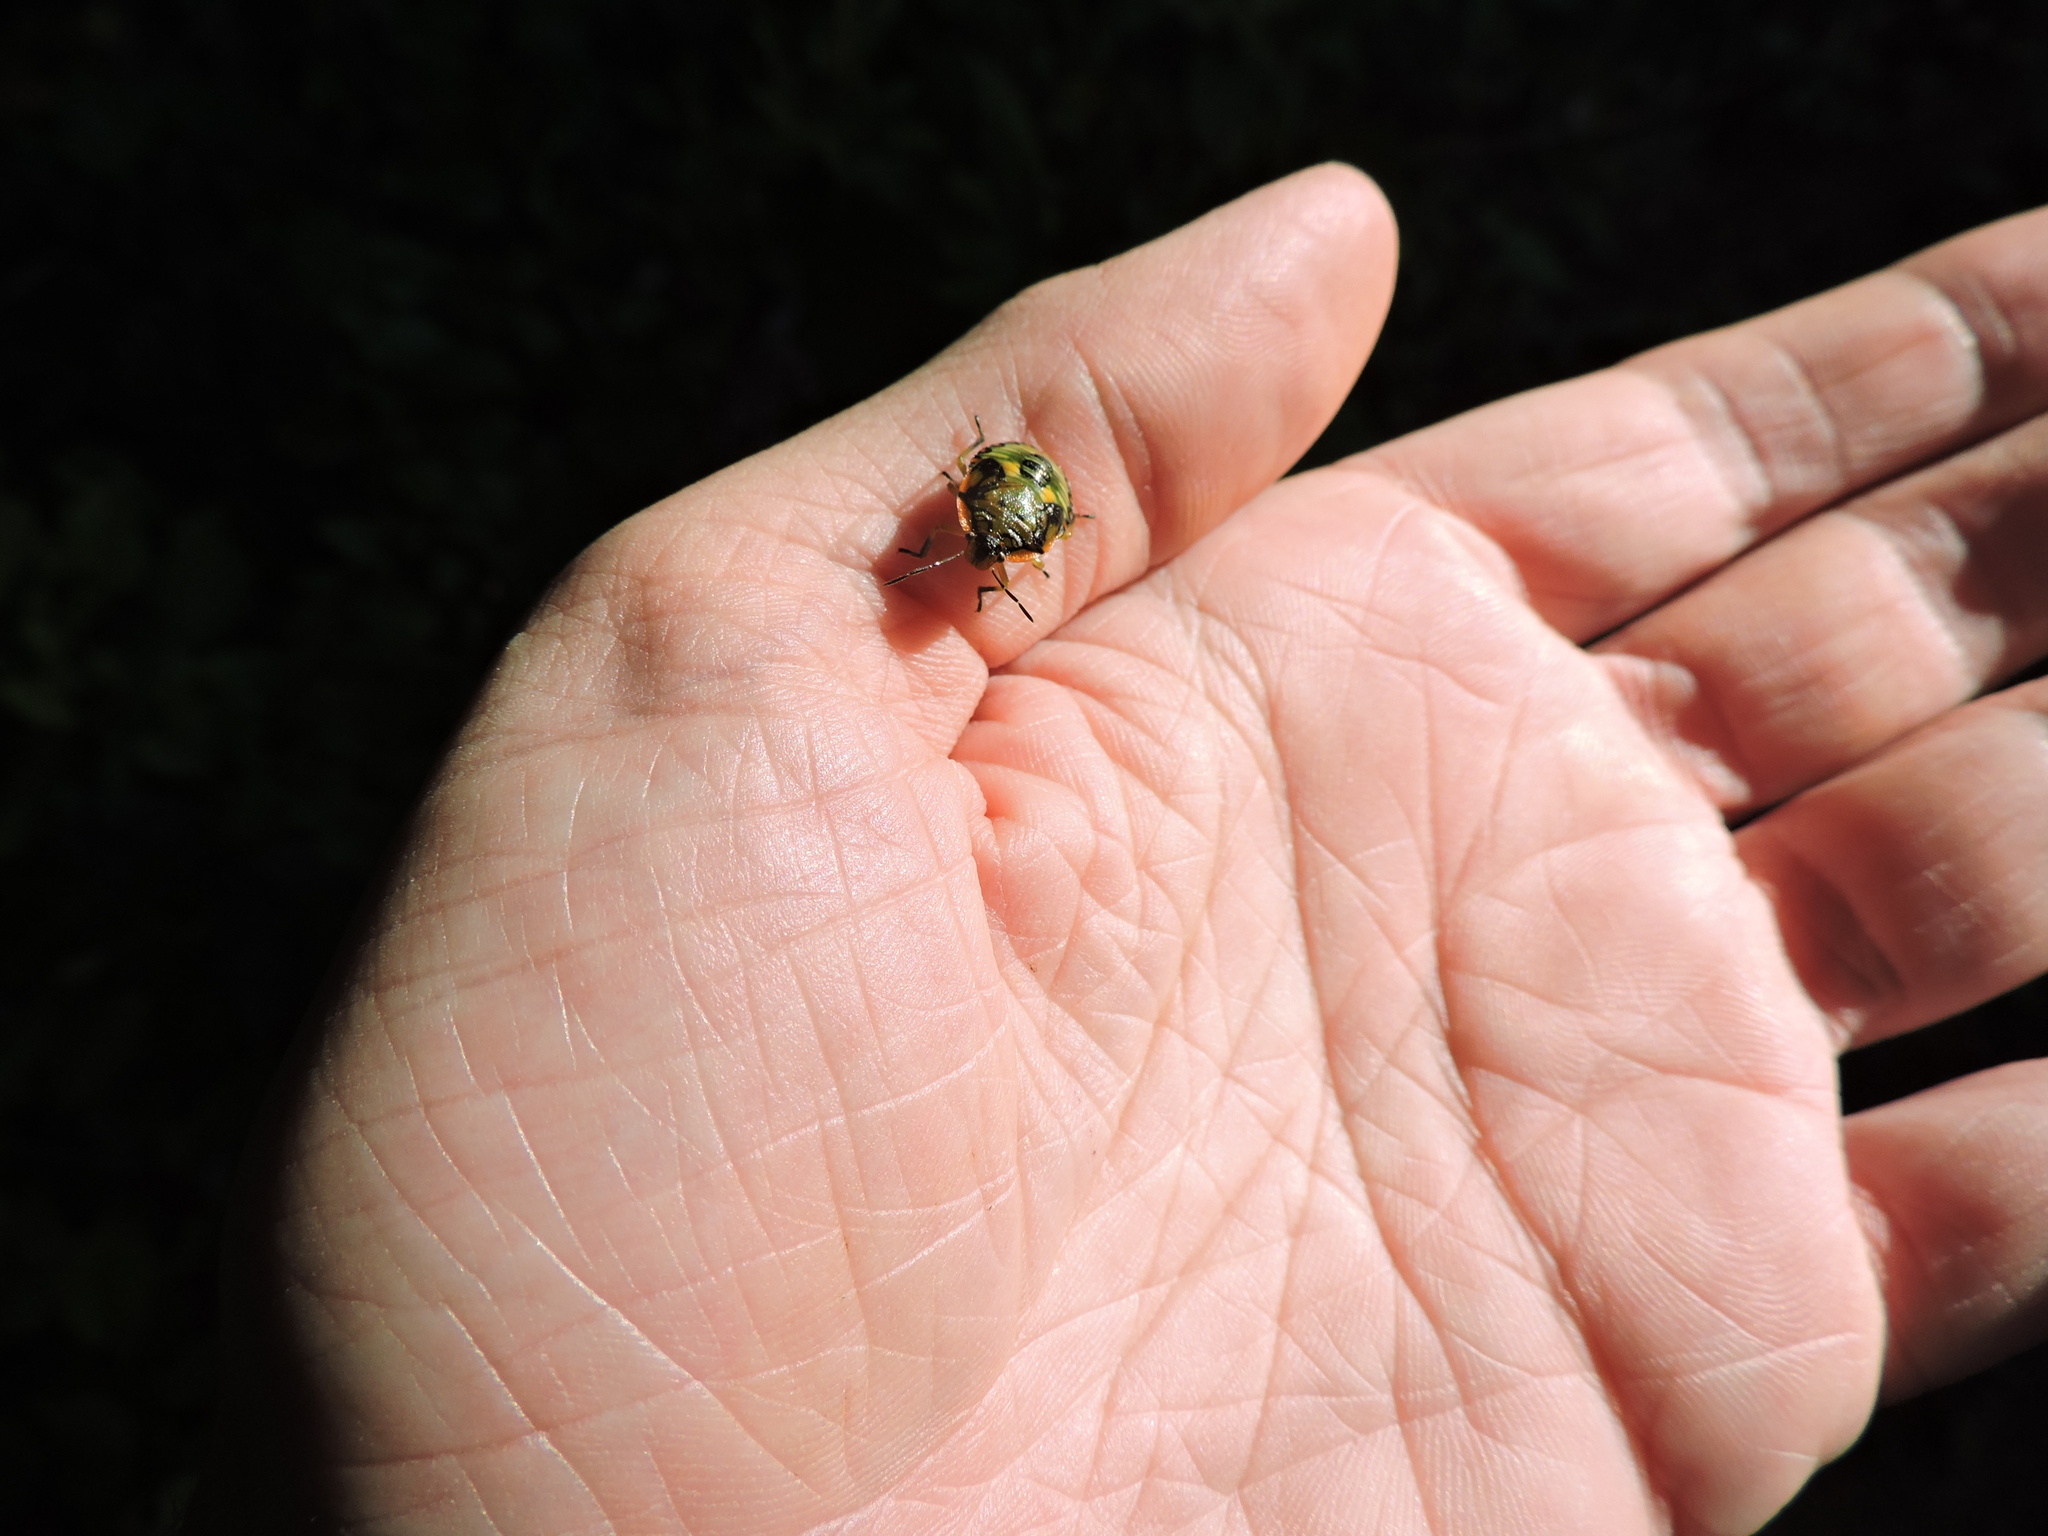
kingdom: Animalia
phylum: Arthropoda
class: Insecta
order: Hemiptera
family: Pentatomidae
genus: Chinavia
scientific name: Chinavia hilaris
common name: Green stink bug
